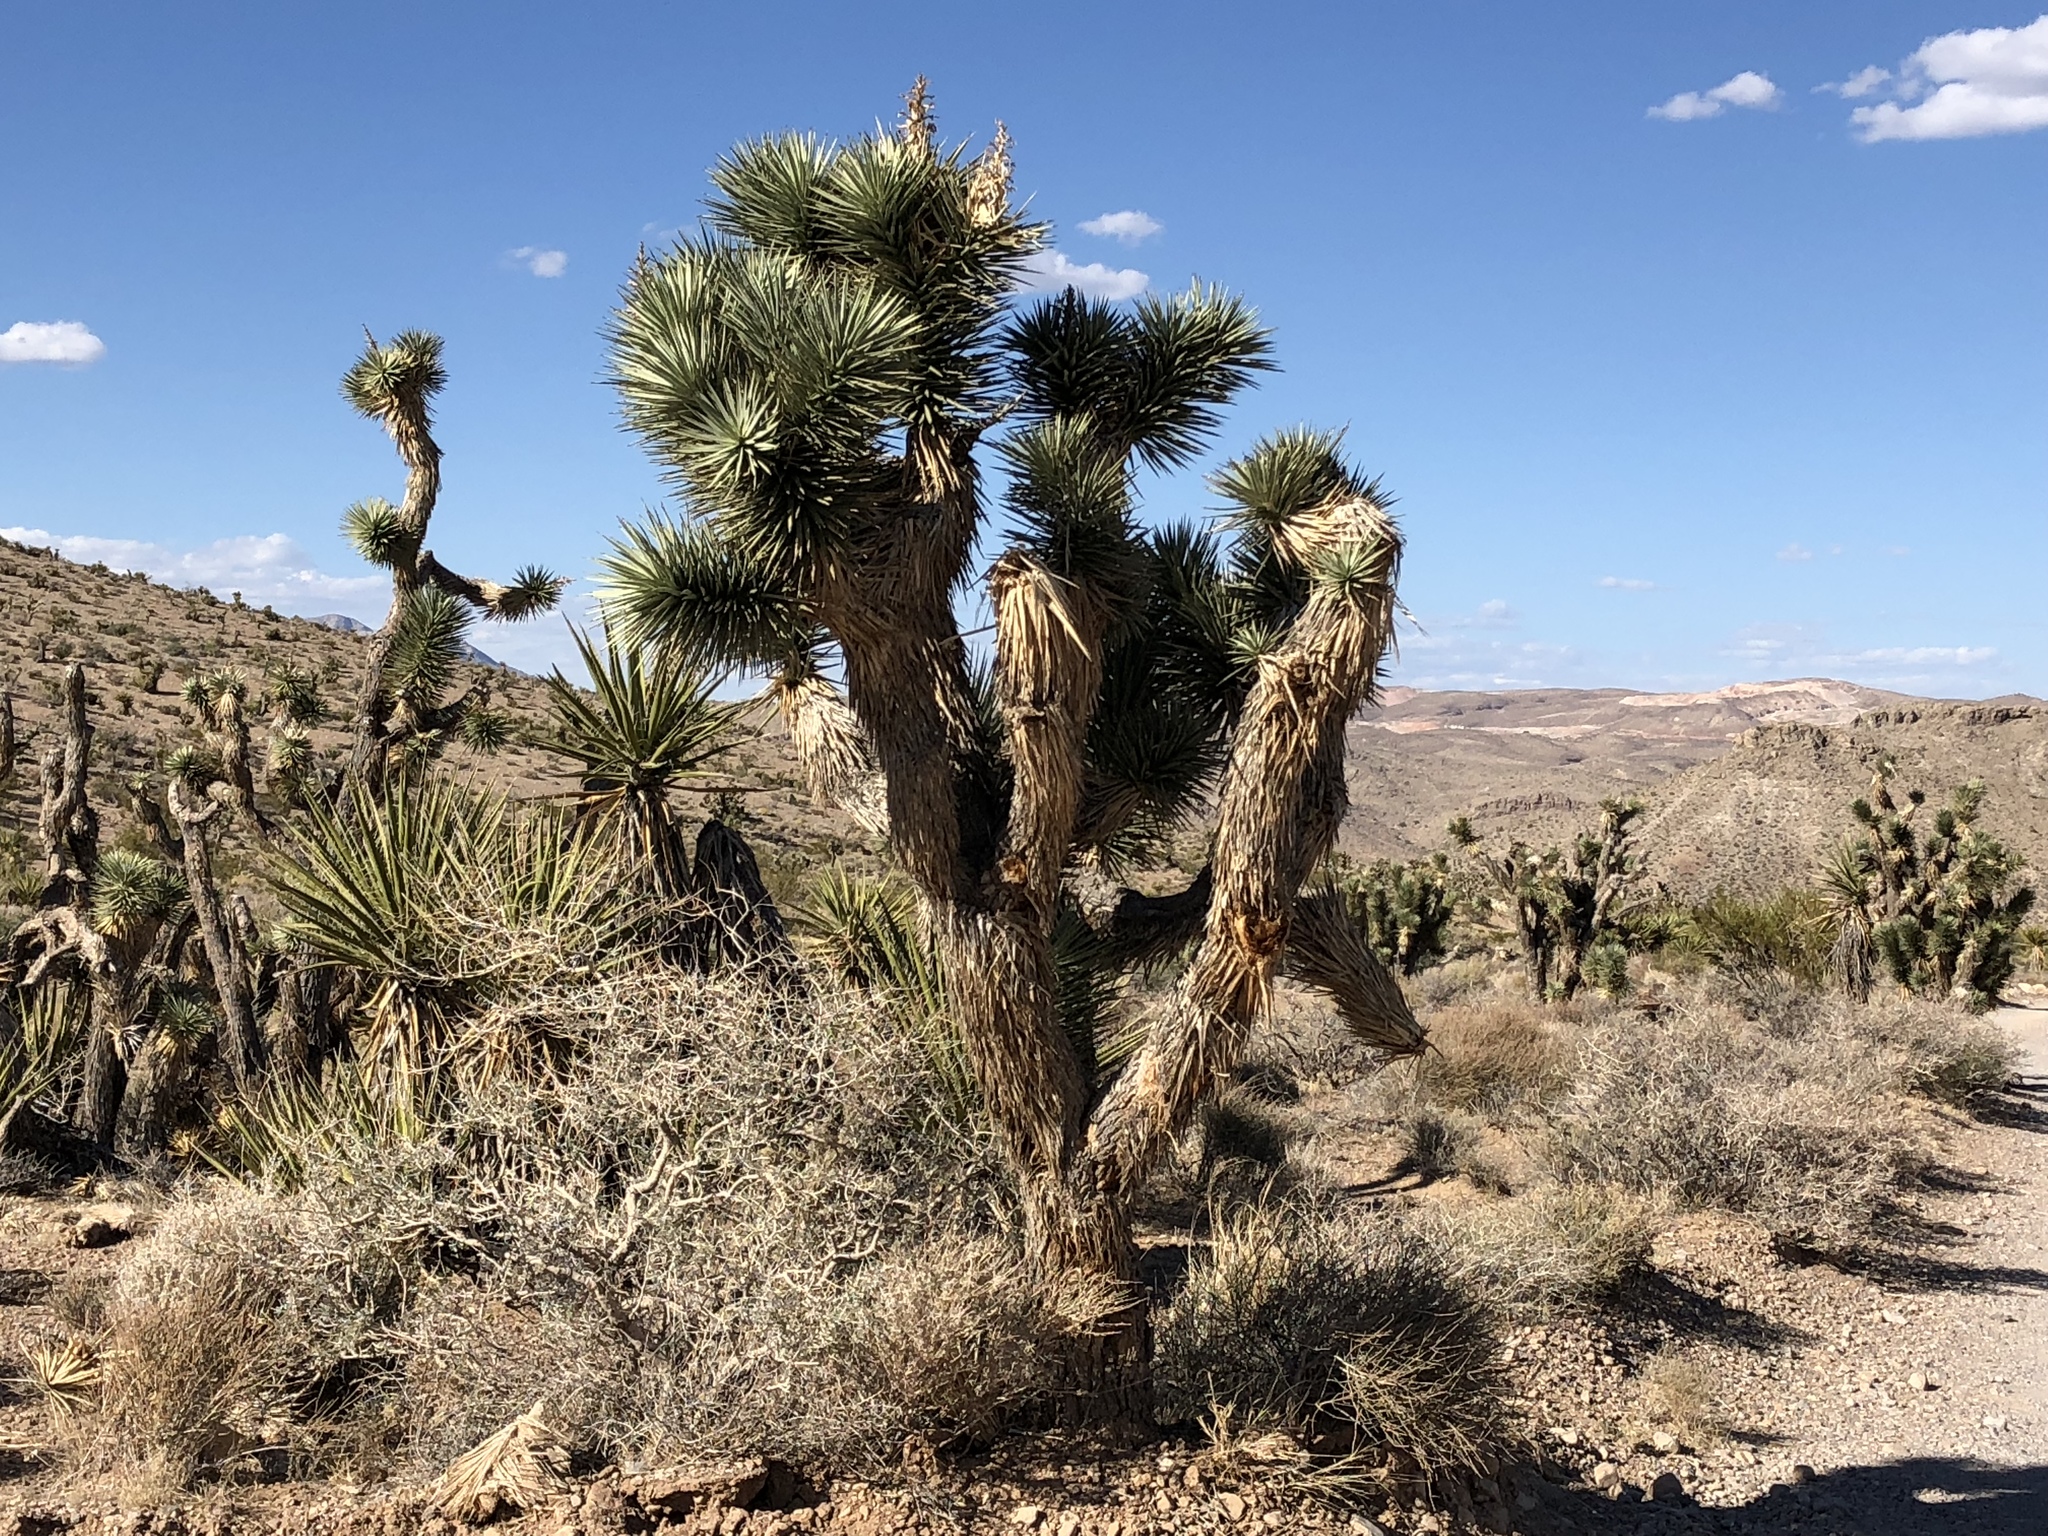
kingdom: Plantae
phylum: Tracheophyta
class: Liliopsida
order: Asparagales
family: Asparagaceae
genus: Yucca
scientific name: Yucca brevifolia
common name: Joshua tree
